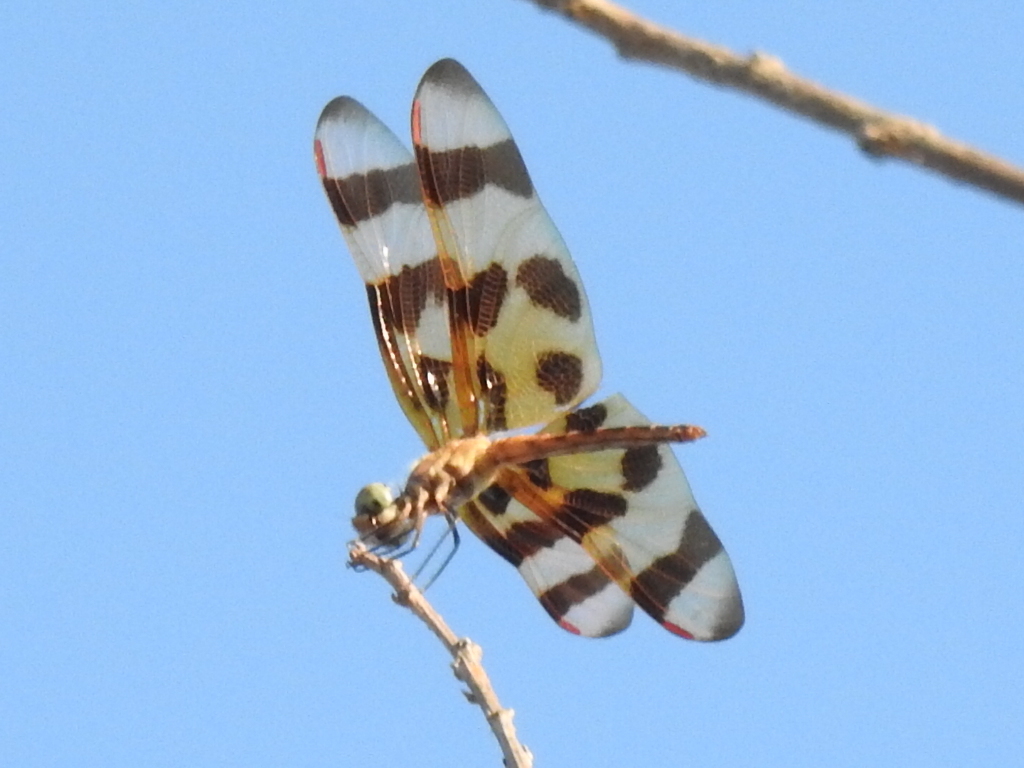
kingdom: Animalia
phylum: Arthropoda
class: Insecta
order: Odonata
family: Libellulidae
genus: Celithemis
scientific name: Celithemis eponina
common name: Halloween pennant
